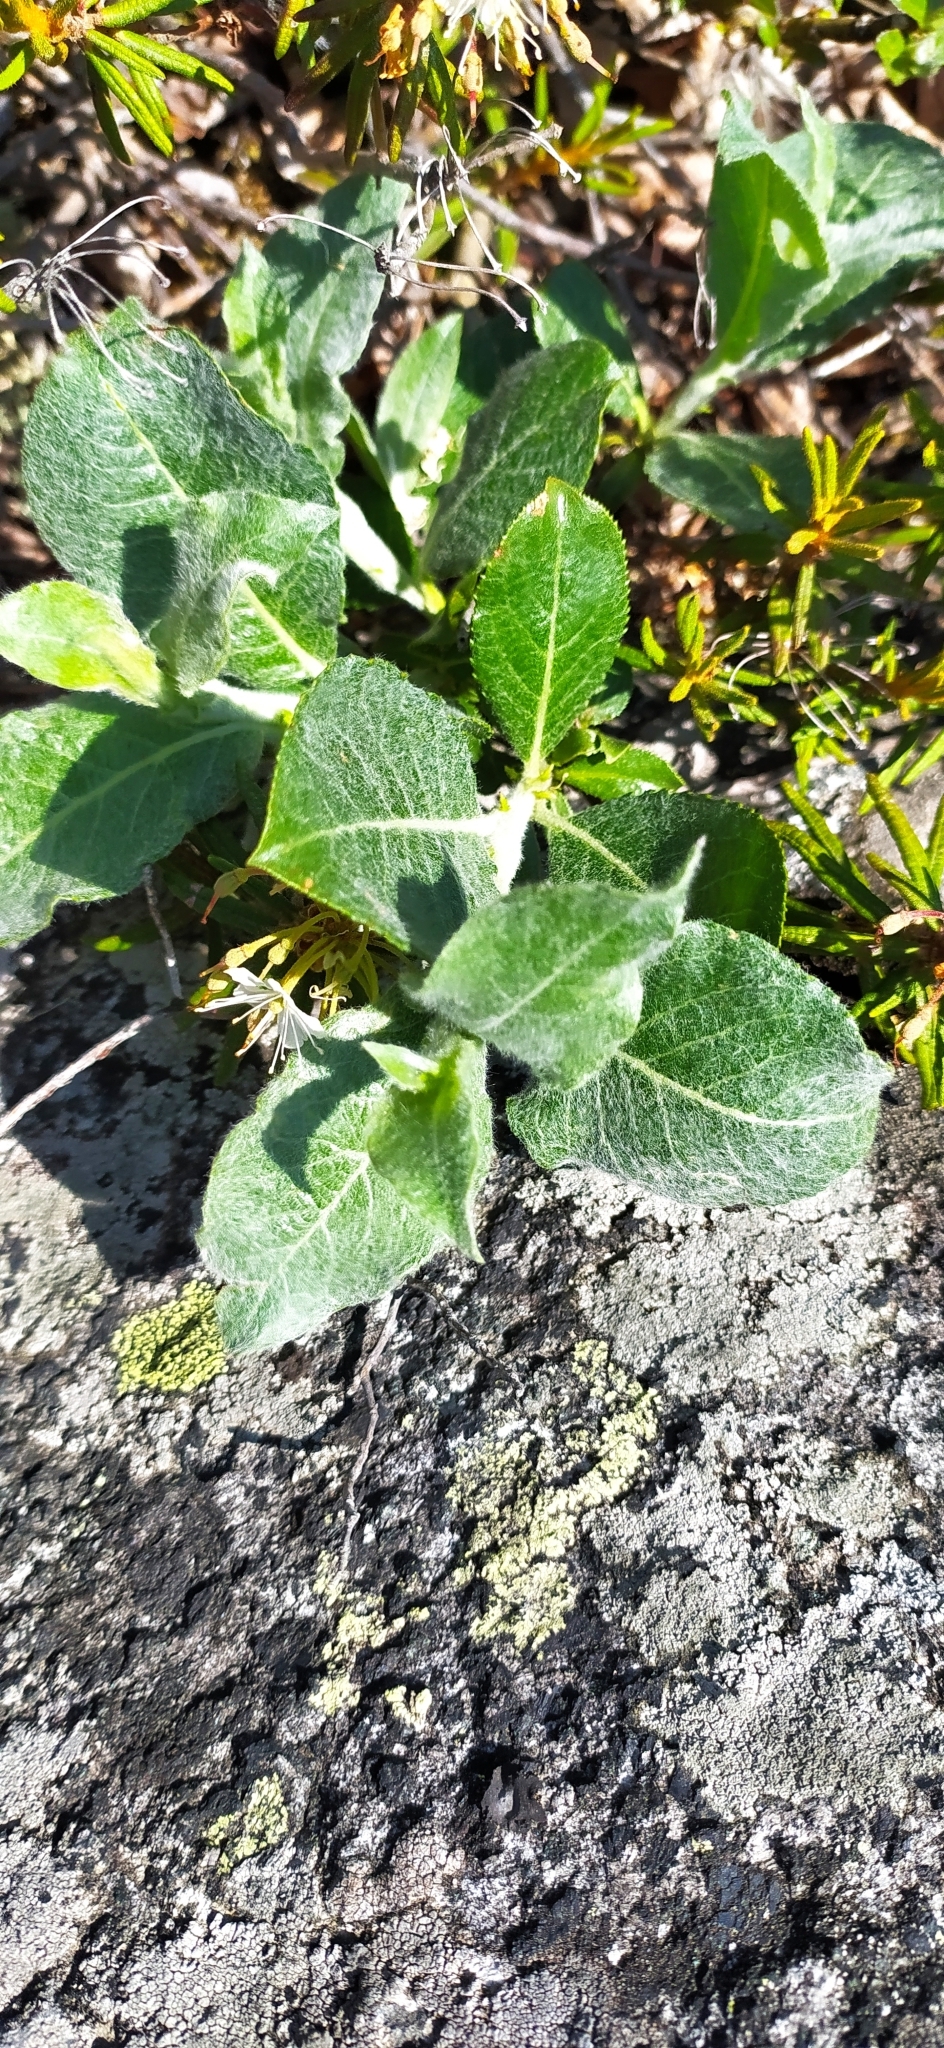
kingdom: Plantae
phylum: Tracheophyta
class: Magnoliopsida
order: Malpighiales
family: Salicaceae
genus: Salix
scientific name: Salix recurvigemmata
